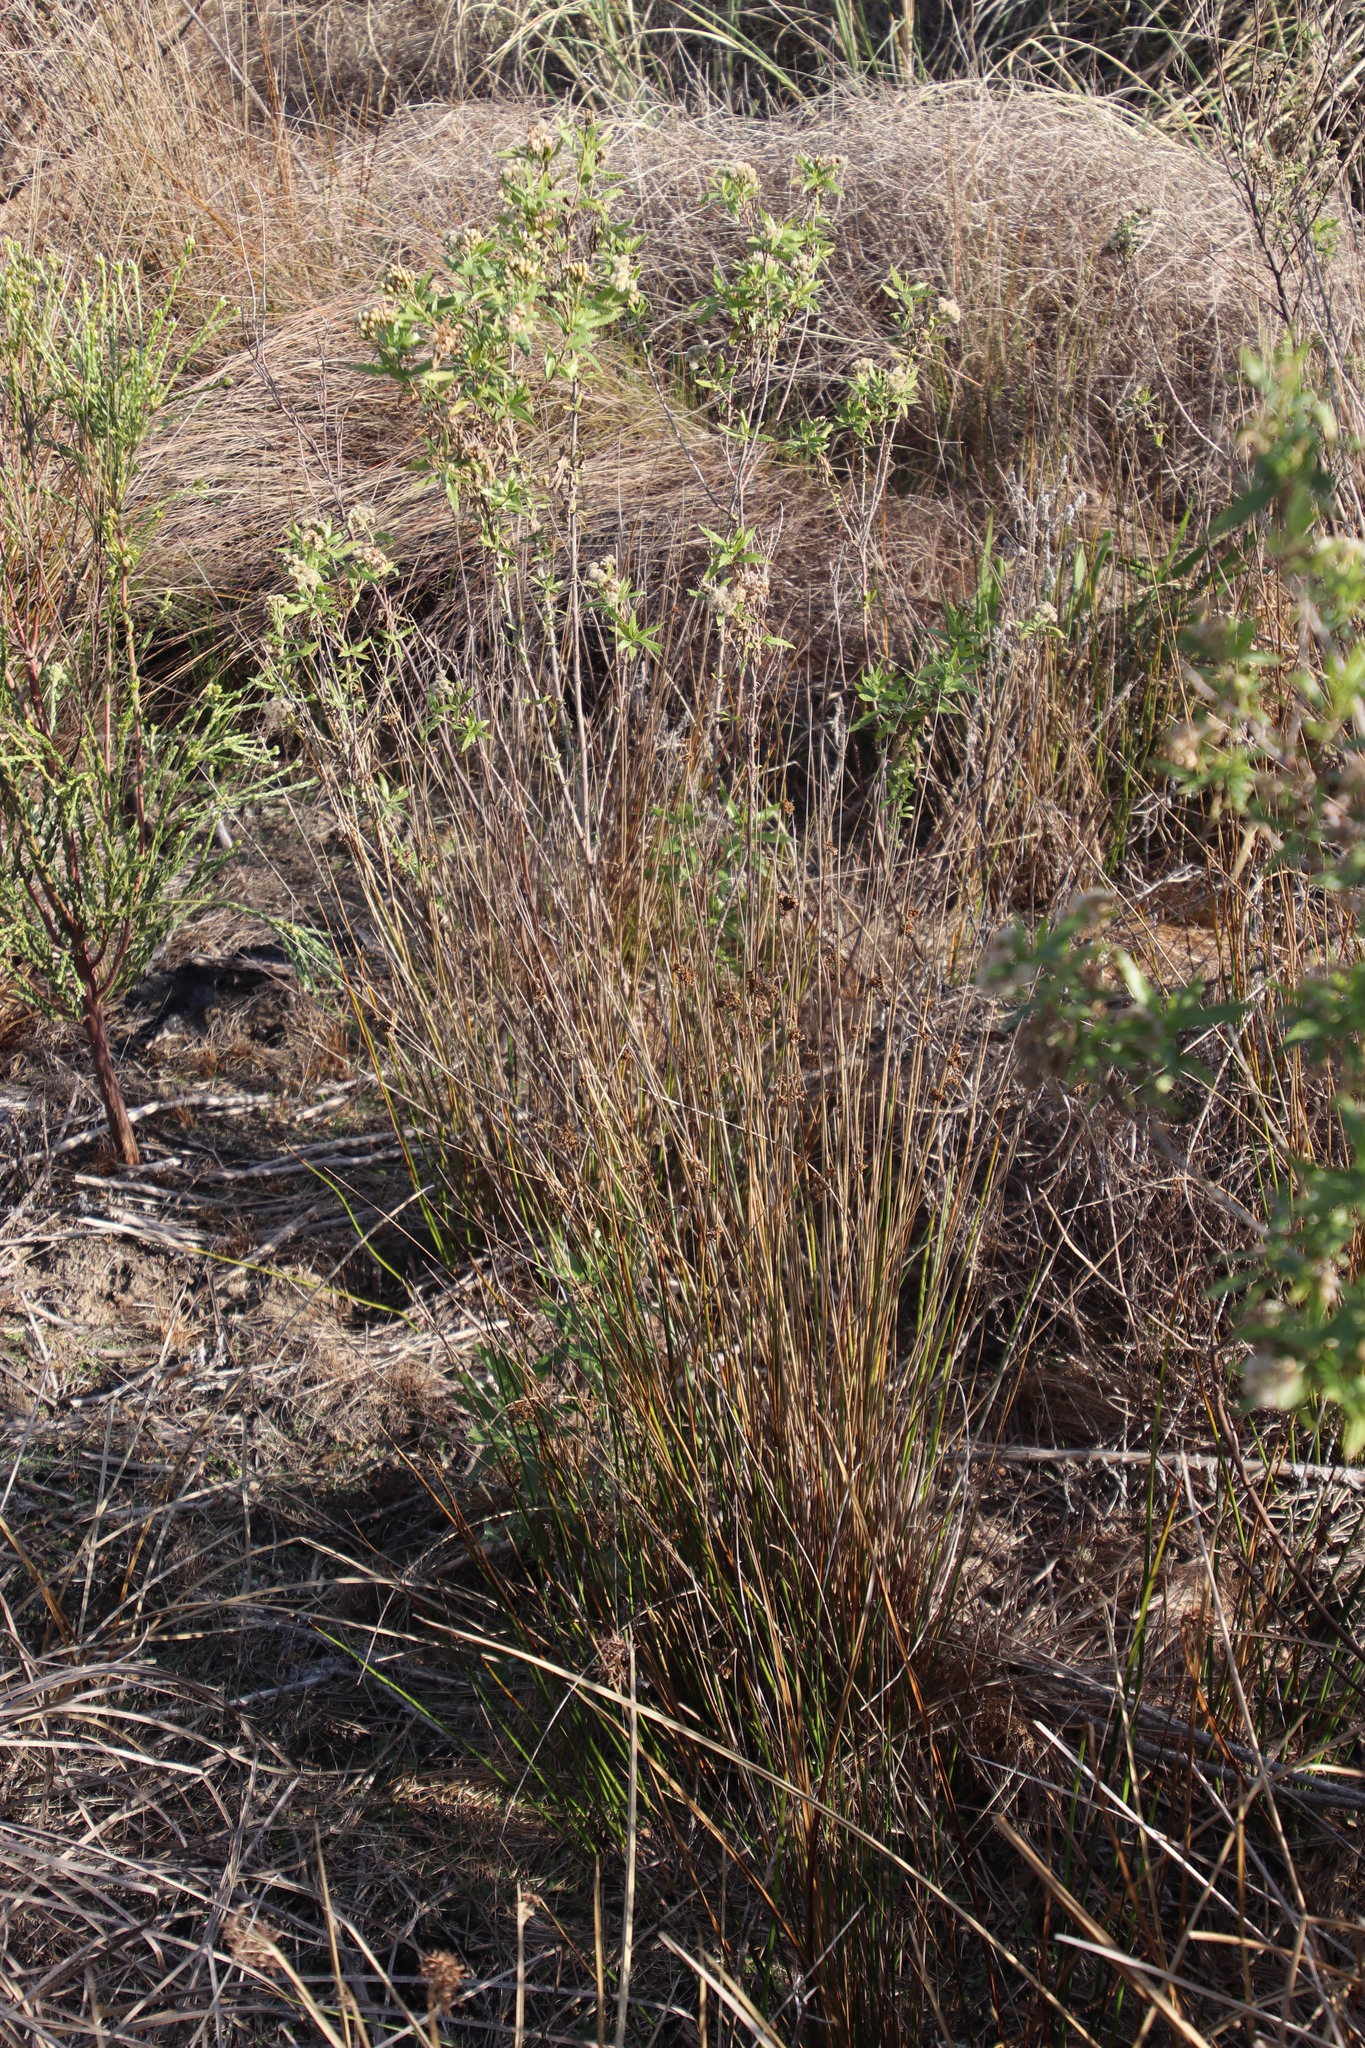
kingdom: Plantae
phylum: Tracheophyta
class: Liliopsida
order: Poales
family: Juncaceae
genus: Juncus
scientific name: Juncus capensis
